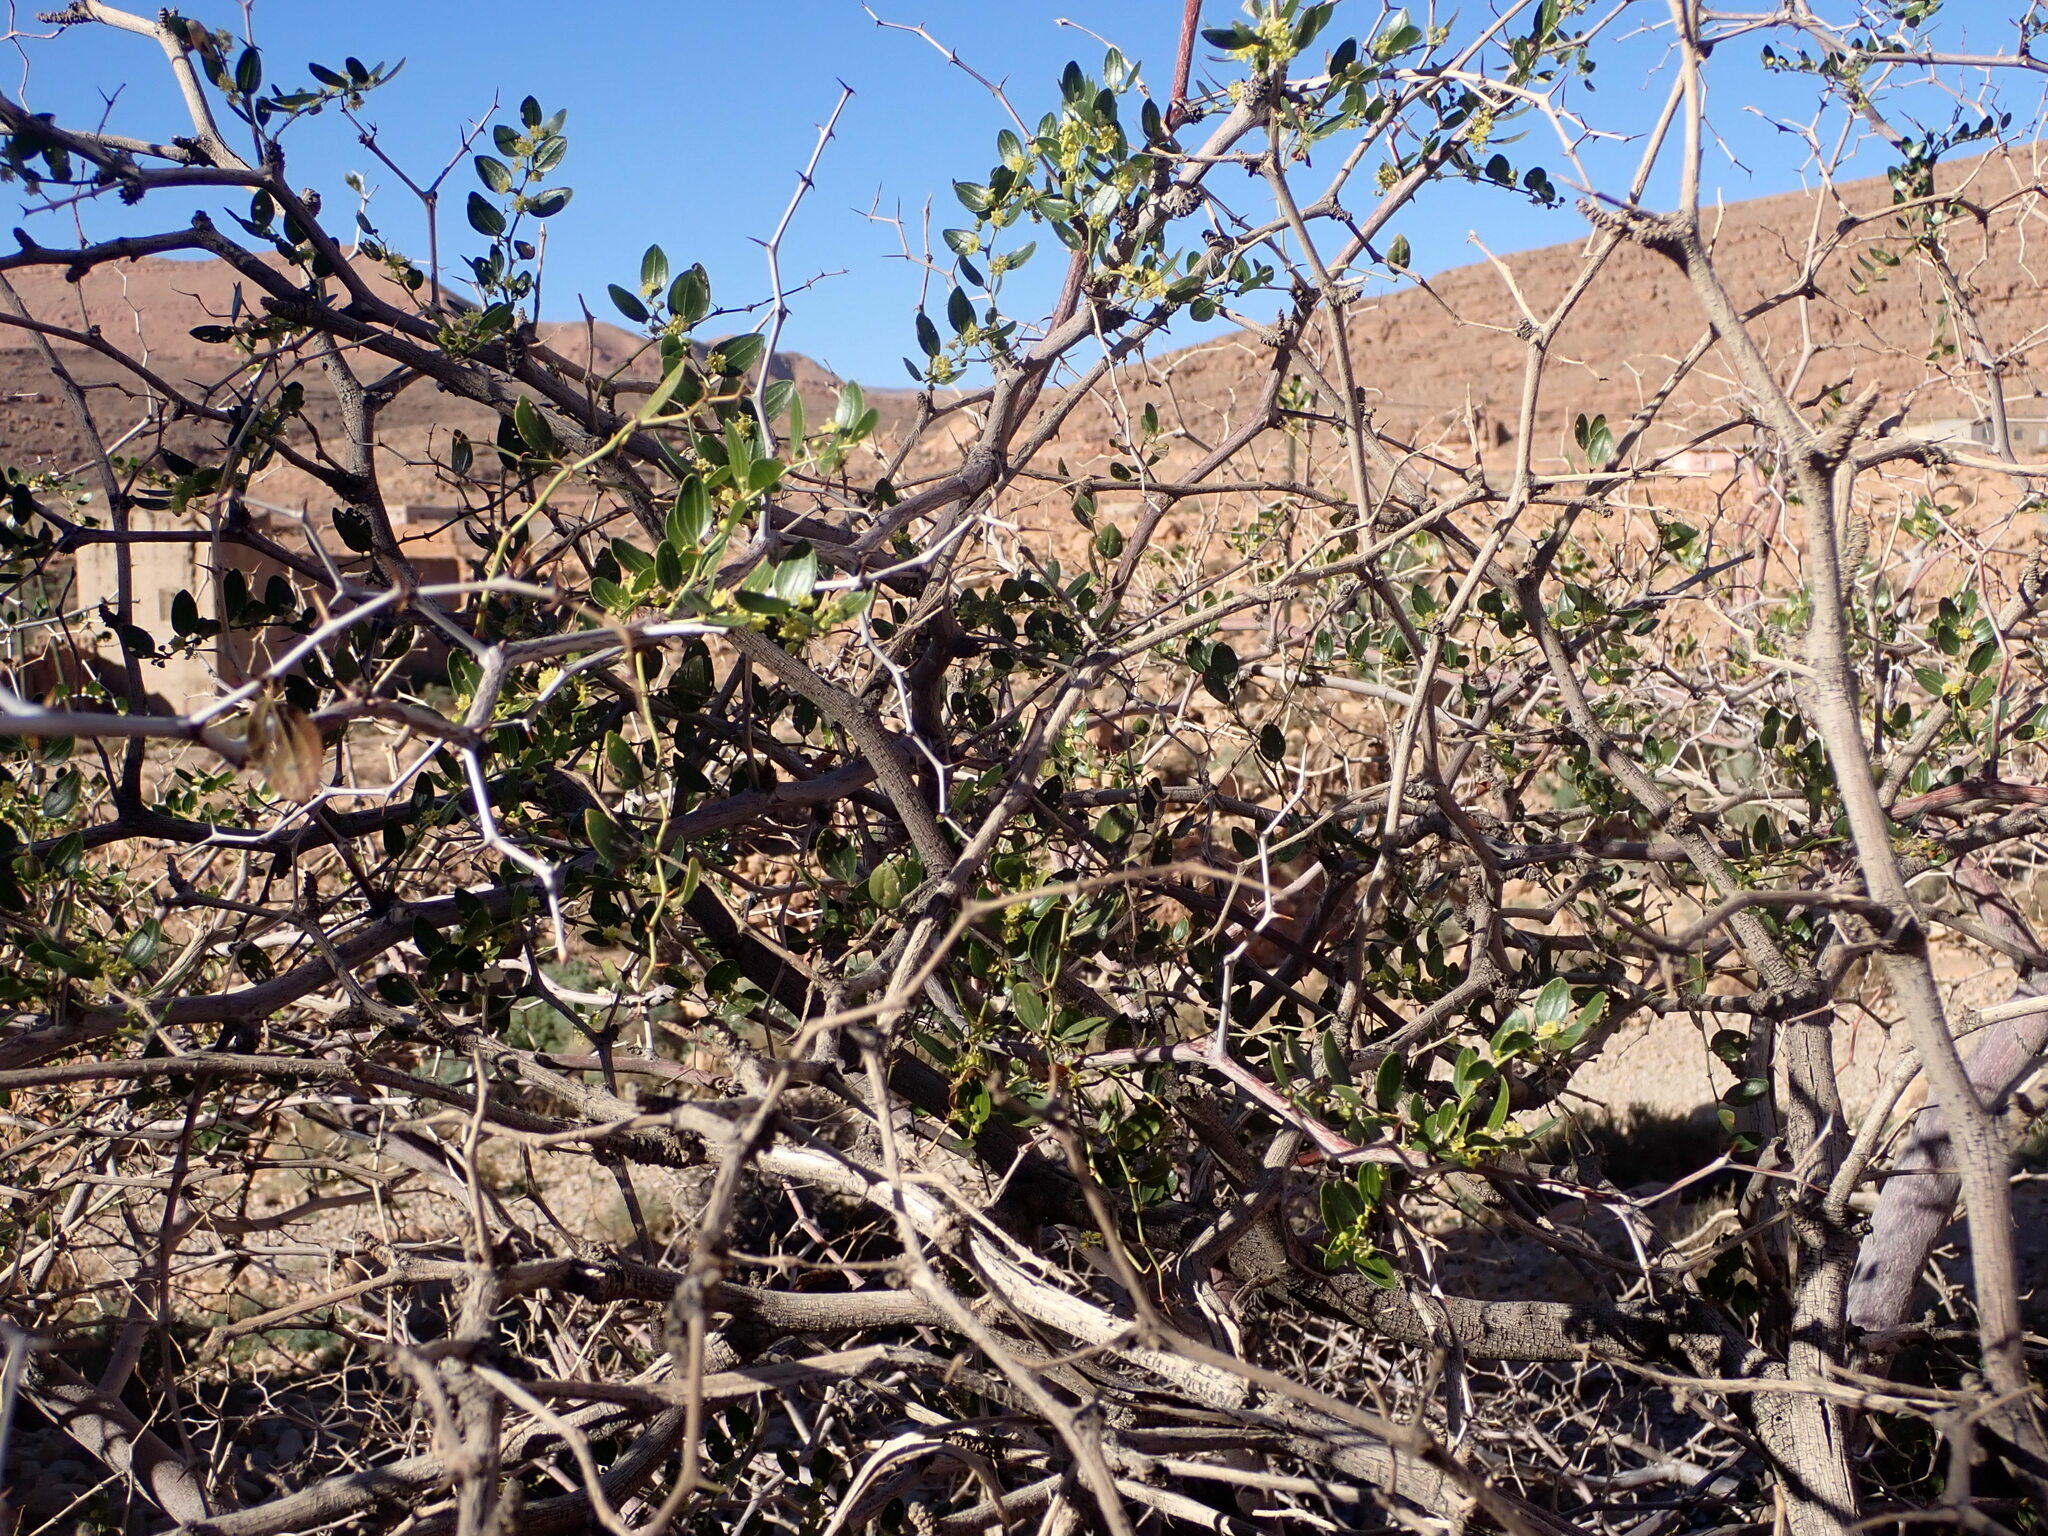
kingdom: Plantae
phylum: Tracheophyta
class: Magnoliopsida
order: Rosales
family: Rhamnaceae
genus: Ziziphus
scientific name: Ziziphus lotus
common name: Lotus
